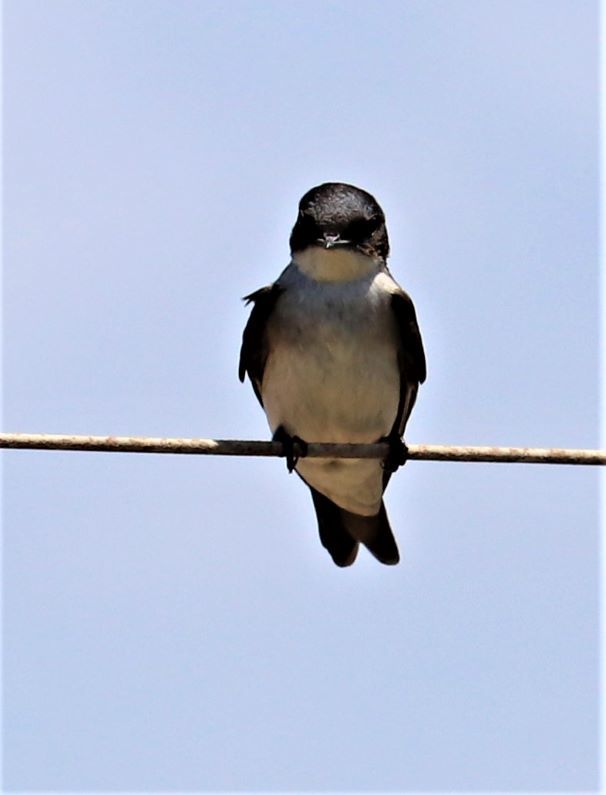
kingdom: Animalia
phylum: Chordata
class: Aves
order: Passeriformes
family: Hirundinidae
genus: Hirundo
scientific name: Hirundo dimidiata
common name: Pearl-breasted swallow
